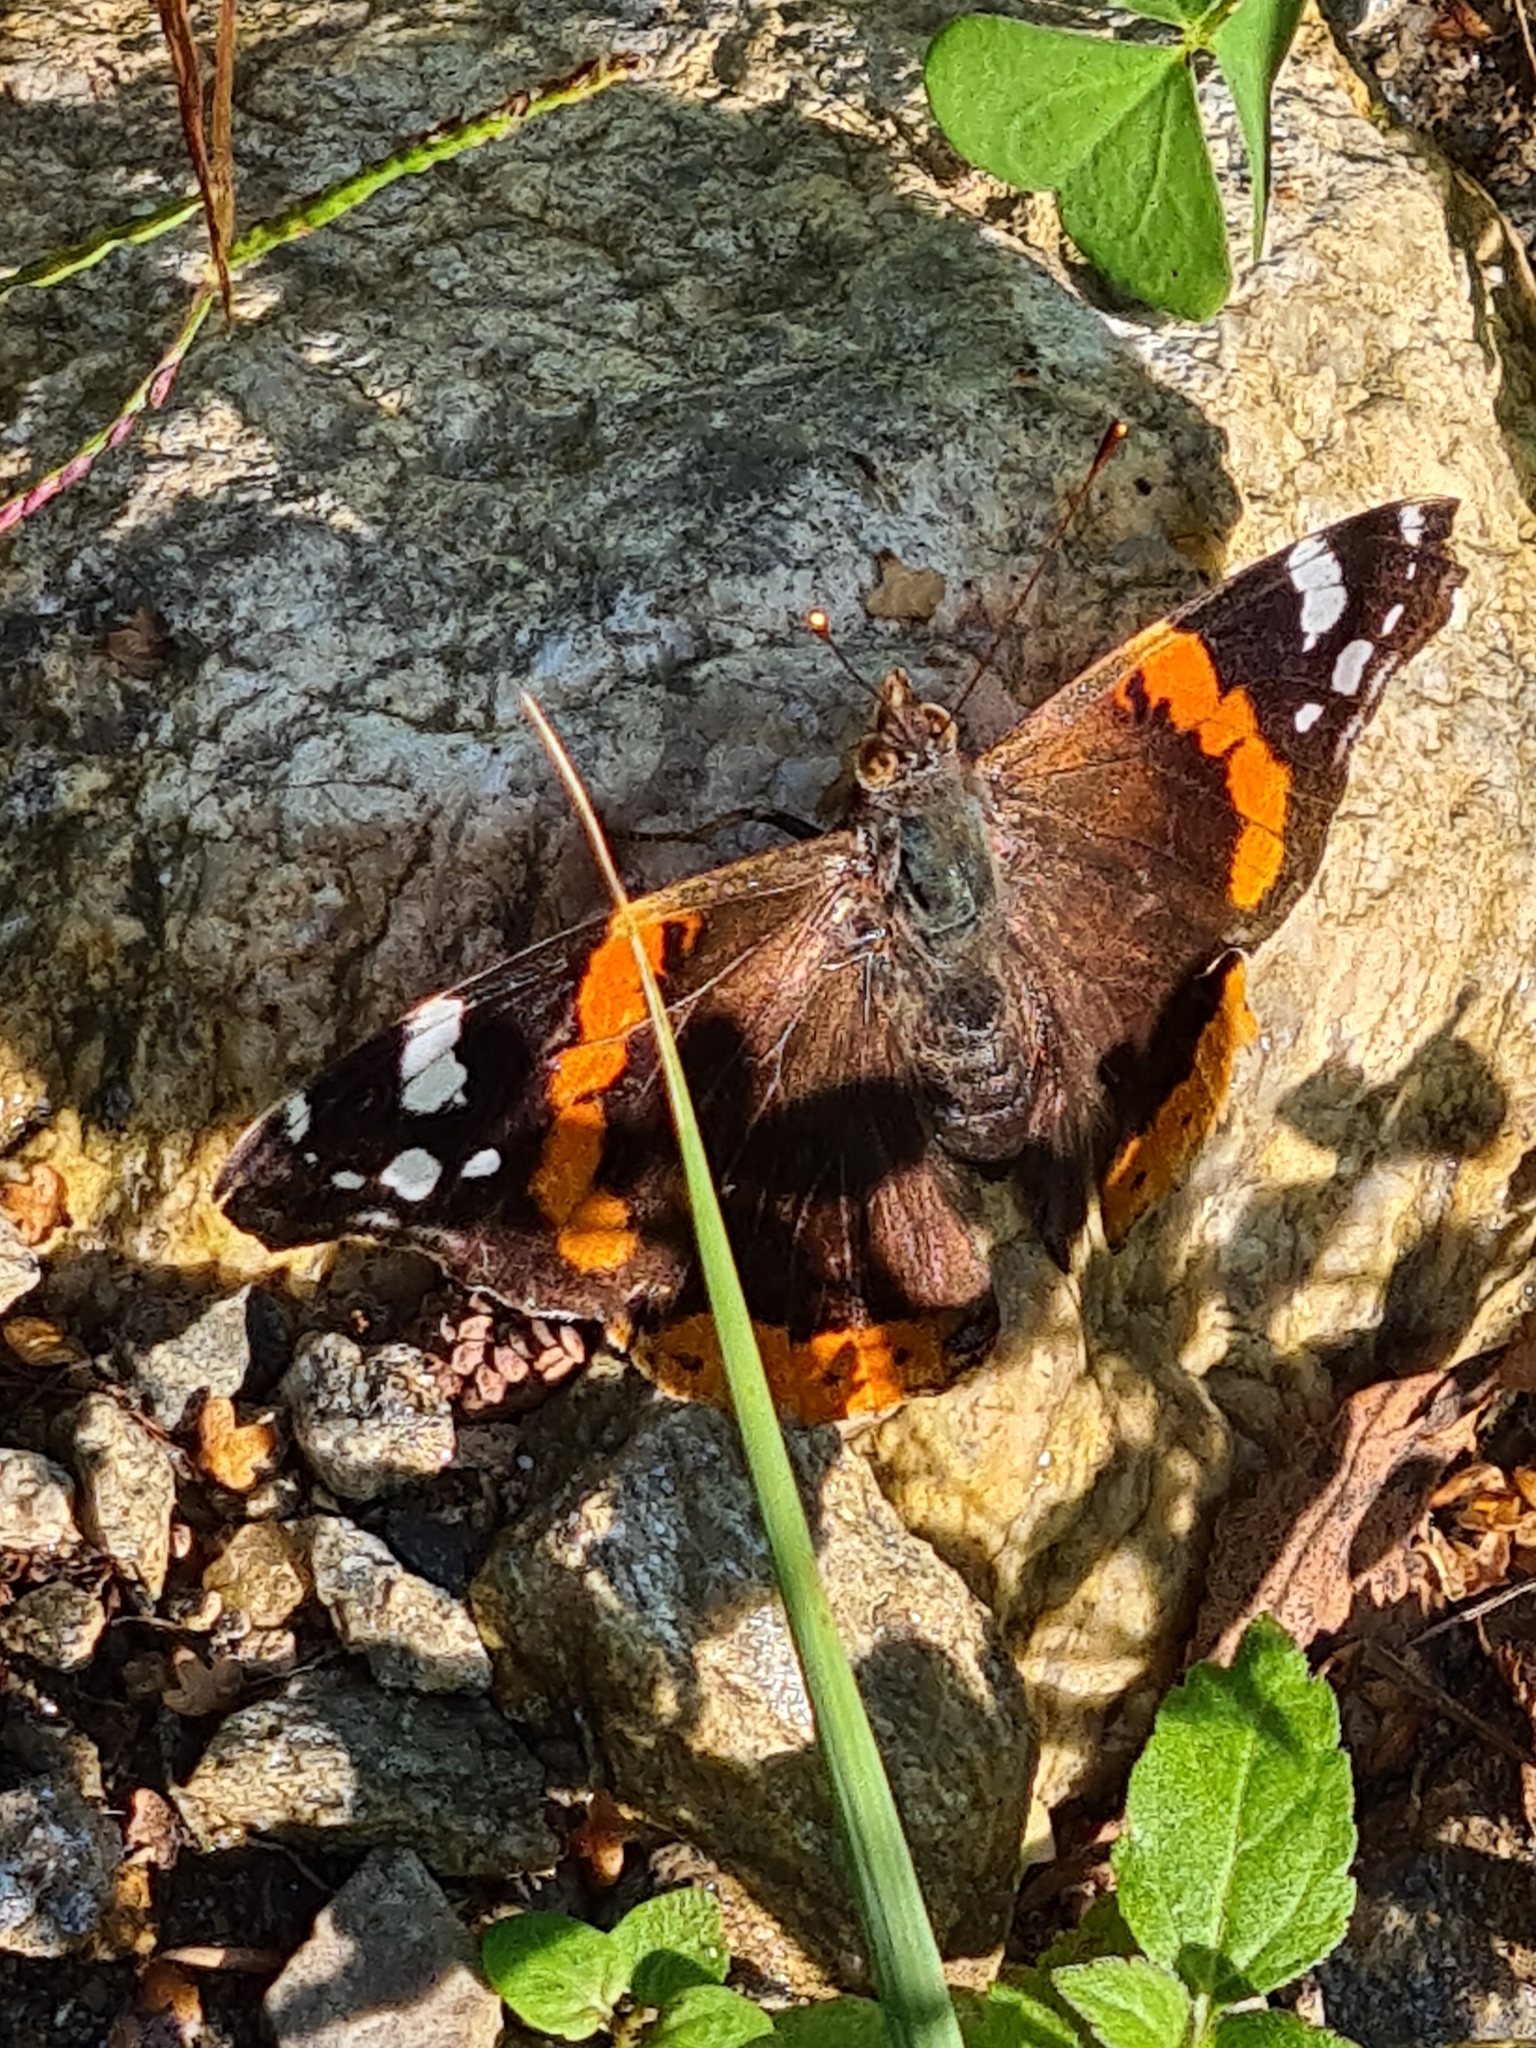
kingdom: Animalia
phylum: Arthropoda
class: Insecta
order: Lepidoptera
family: Nymphalidae
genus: Vanessa
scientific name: Vanessa atalanta
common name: Red admiral
